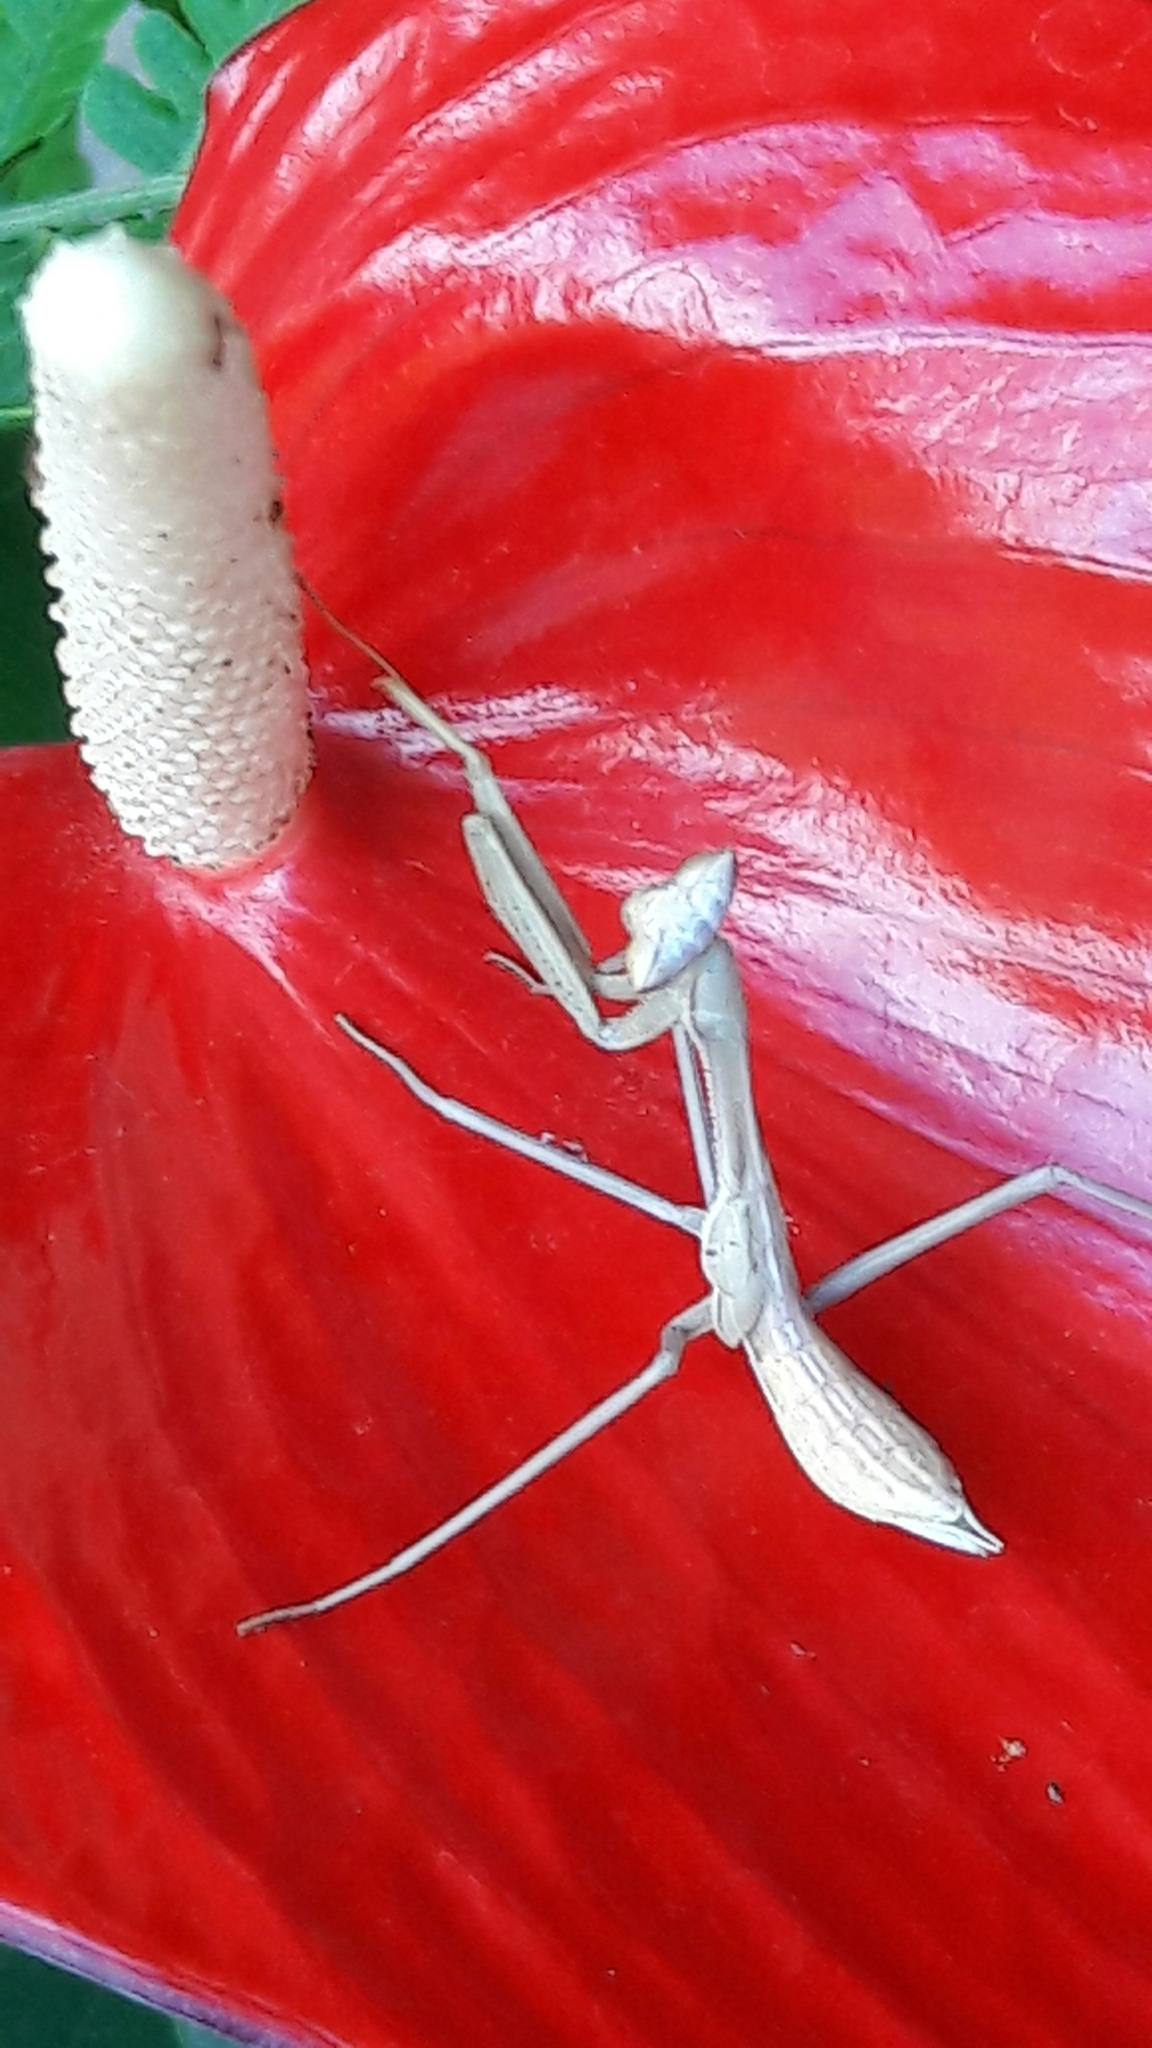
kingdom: Animalia
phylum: Arthropoda
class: Insecta
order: Mantodea
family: Mantidae
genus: Oxyopsis
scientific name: Oxyopsis
